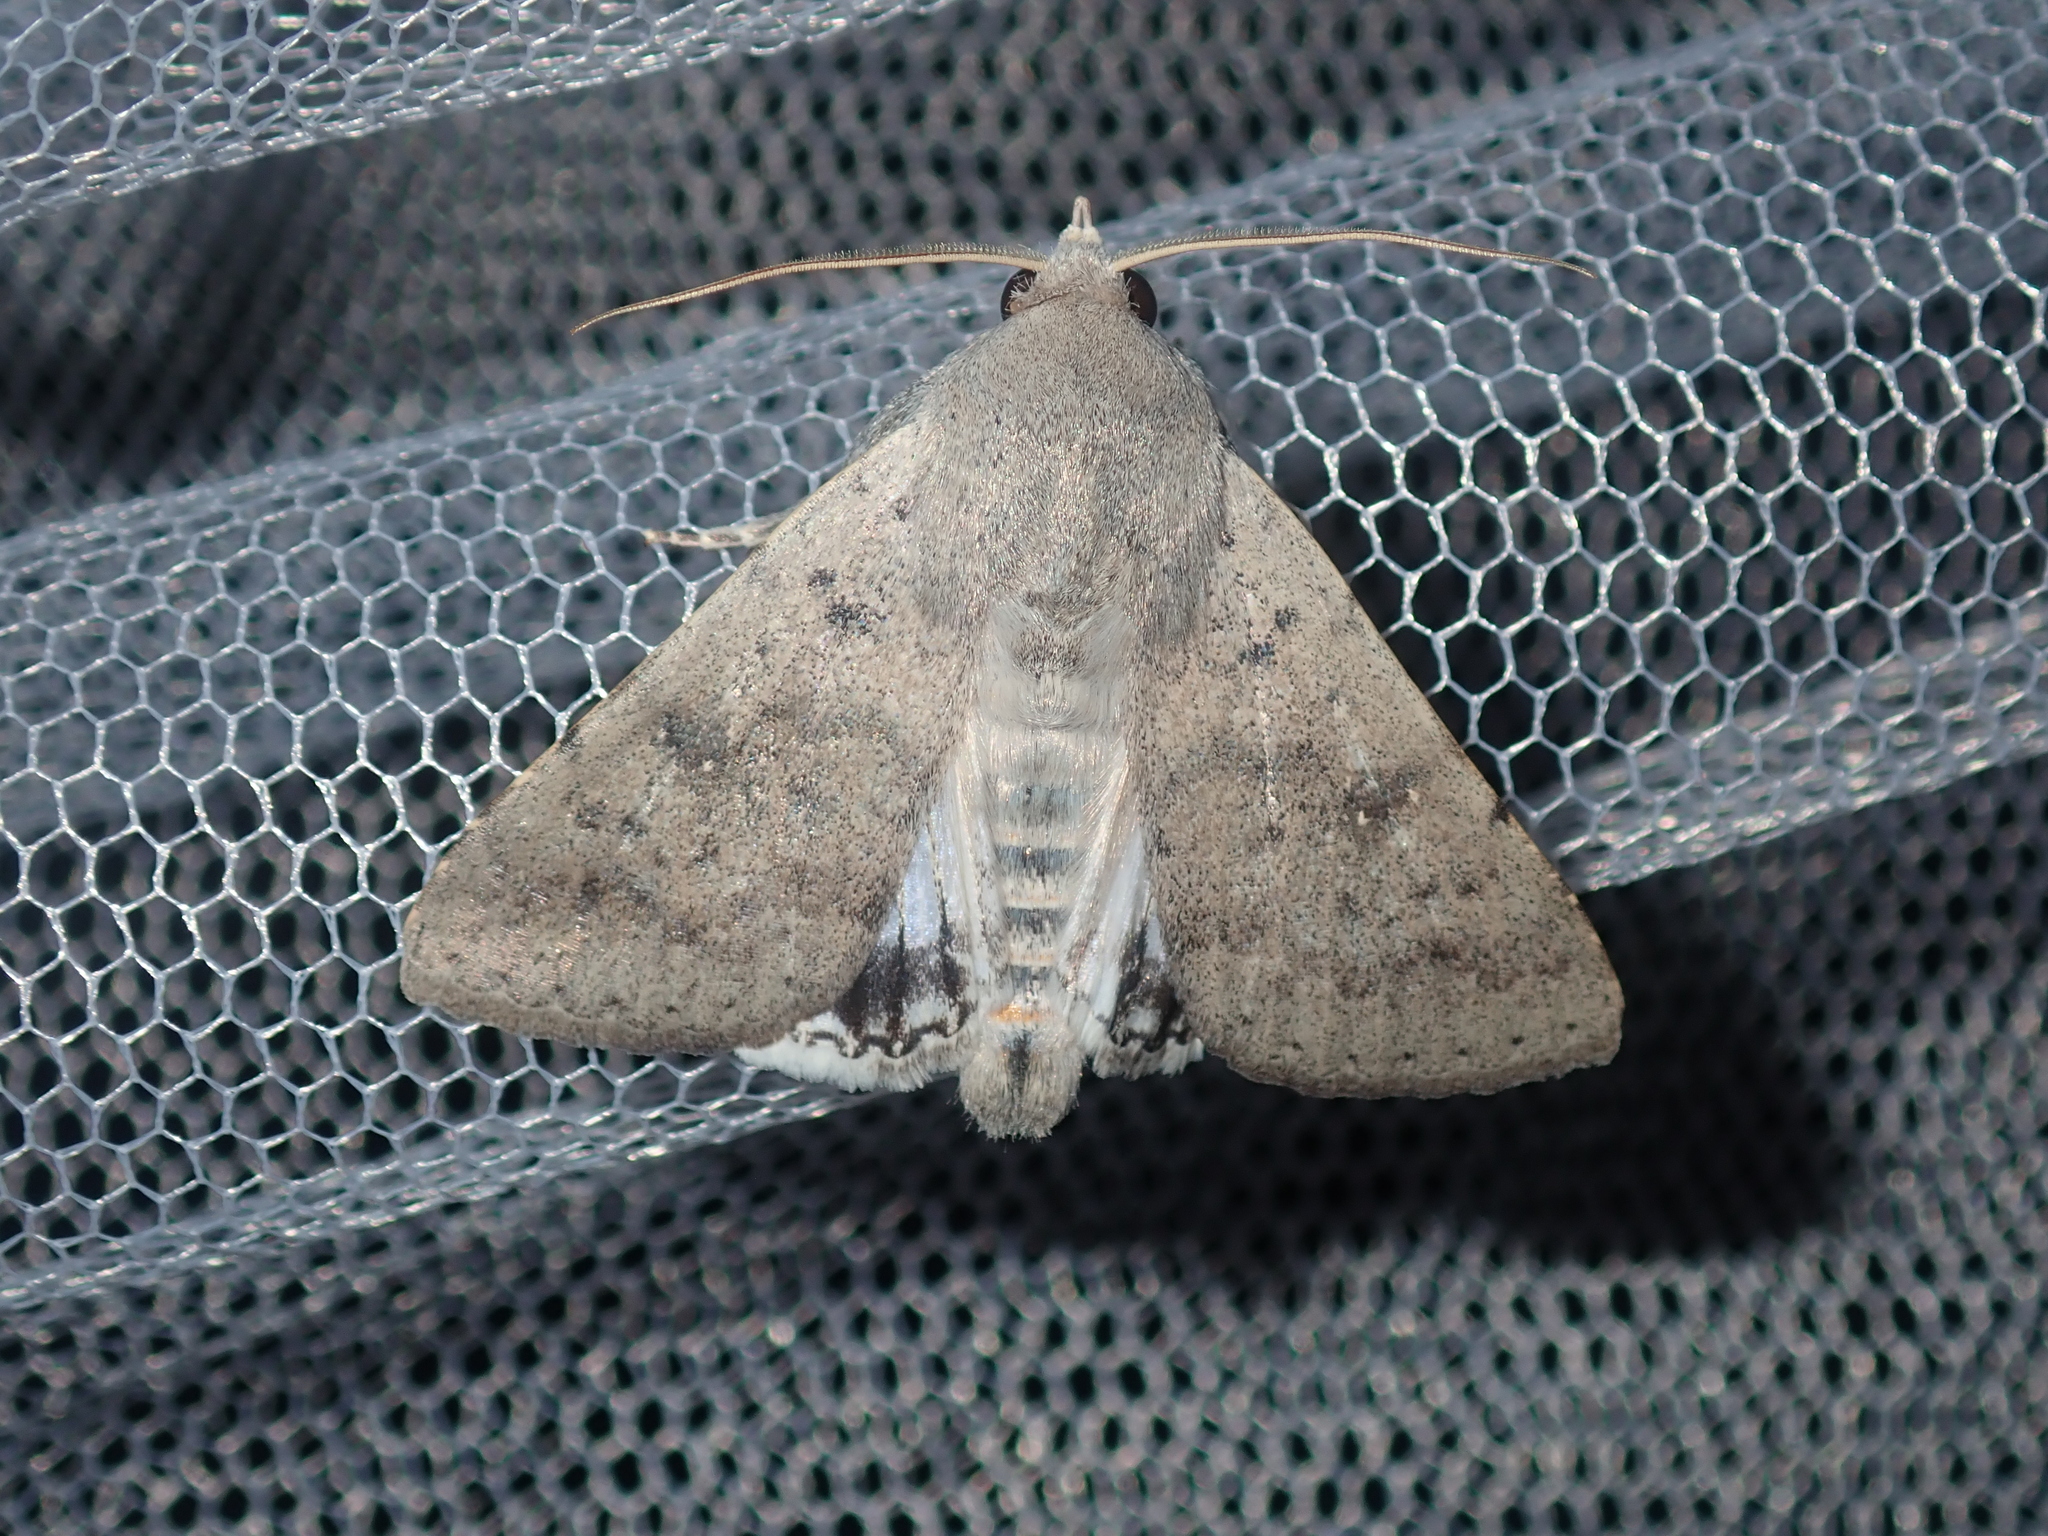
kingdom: Animalia
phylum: Arthropoda
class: Insecta
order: Lepidoptera
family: Erebidae
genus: Pandesma
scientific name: Pandesma submurina
